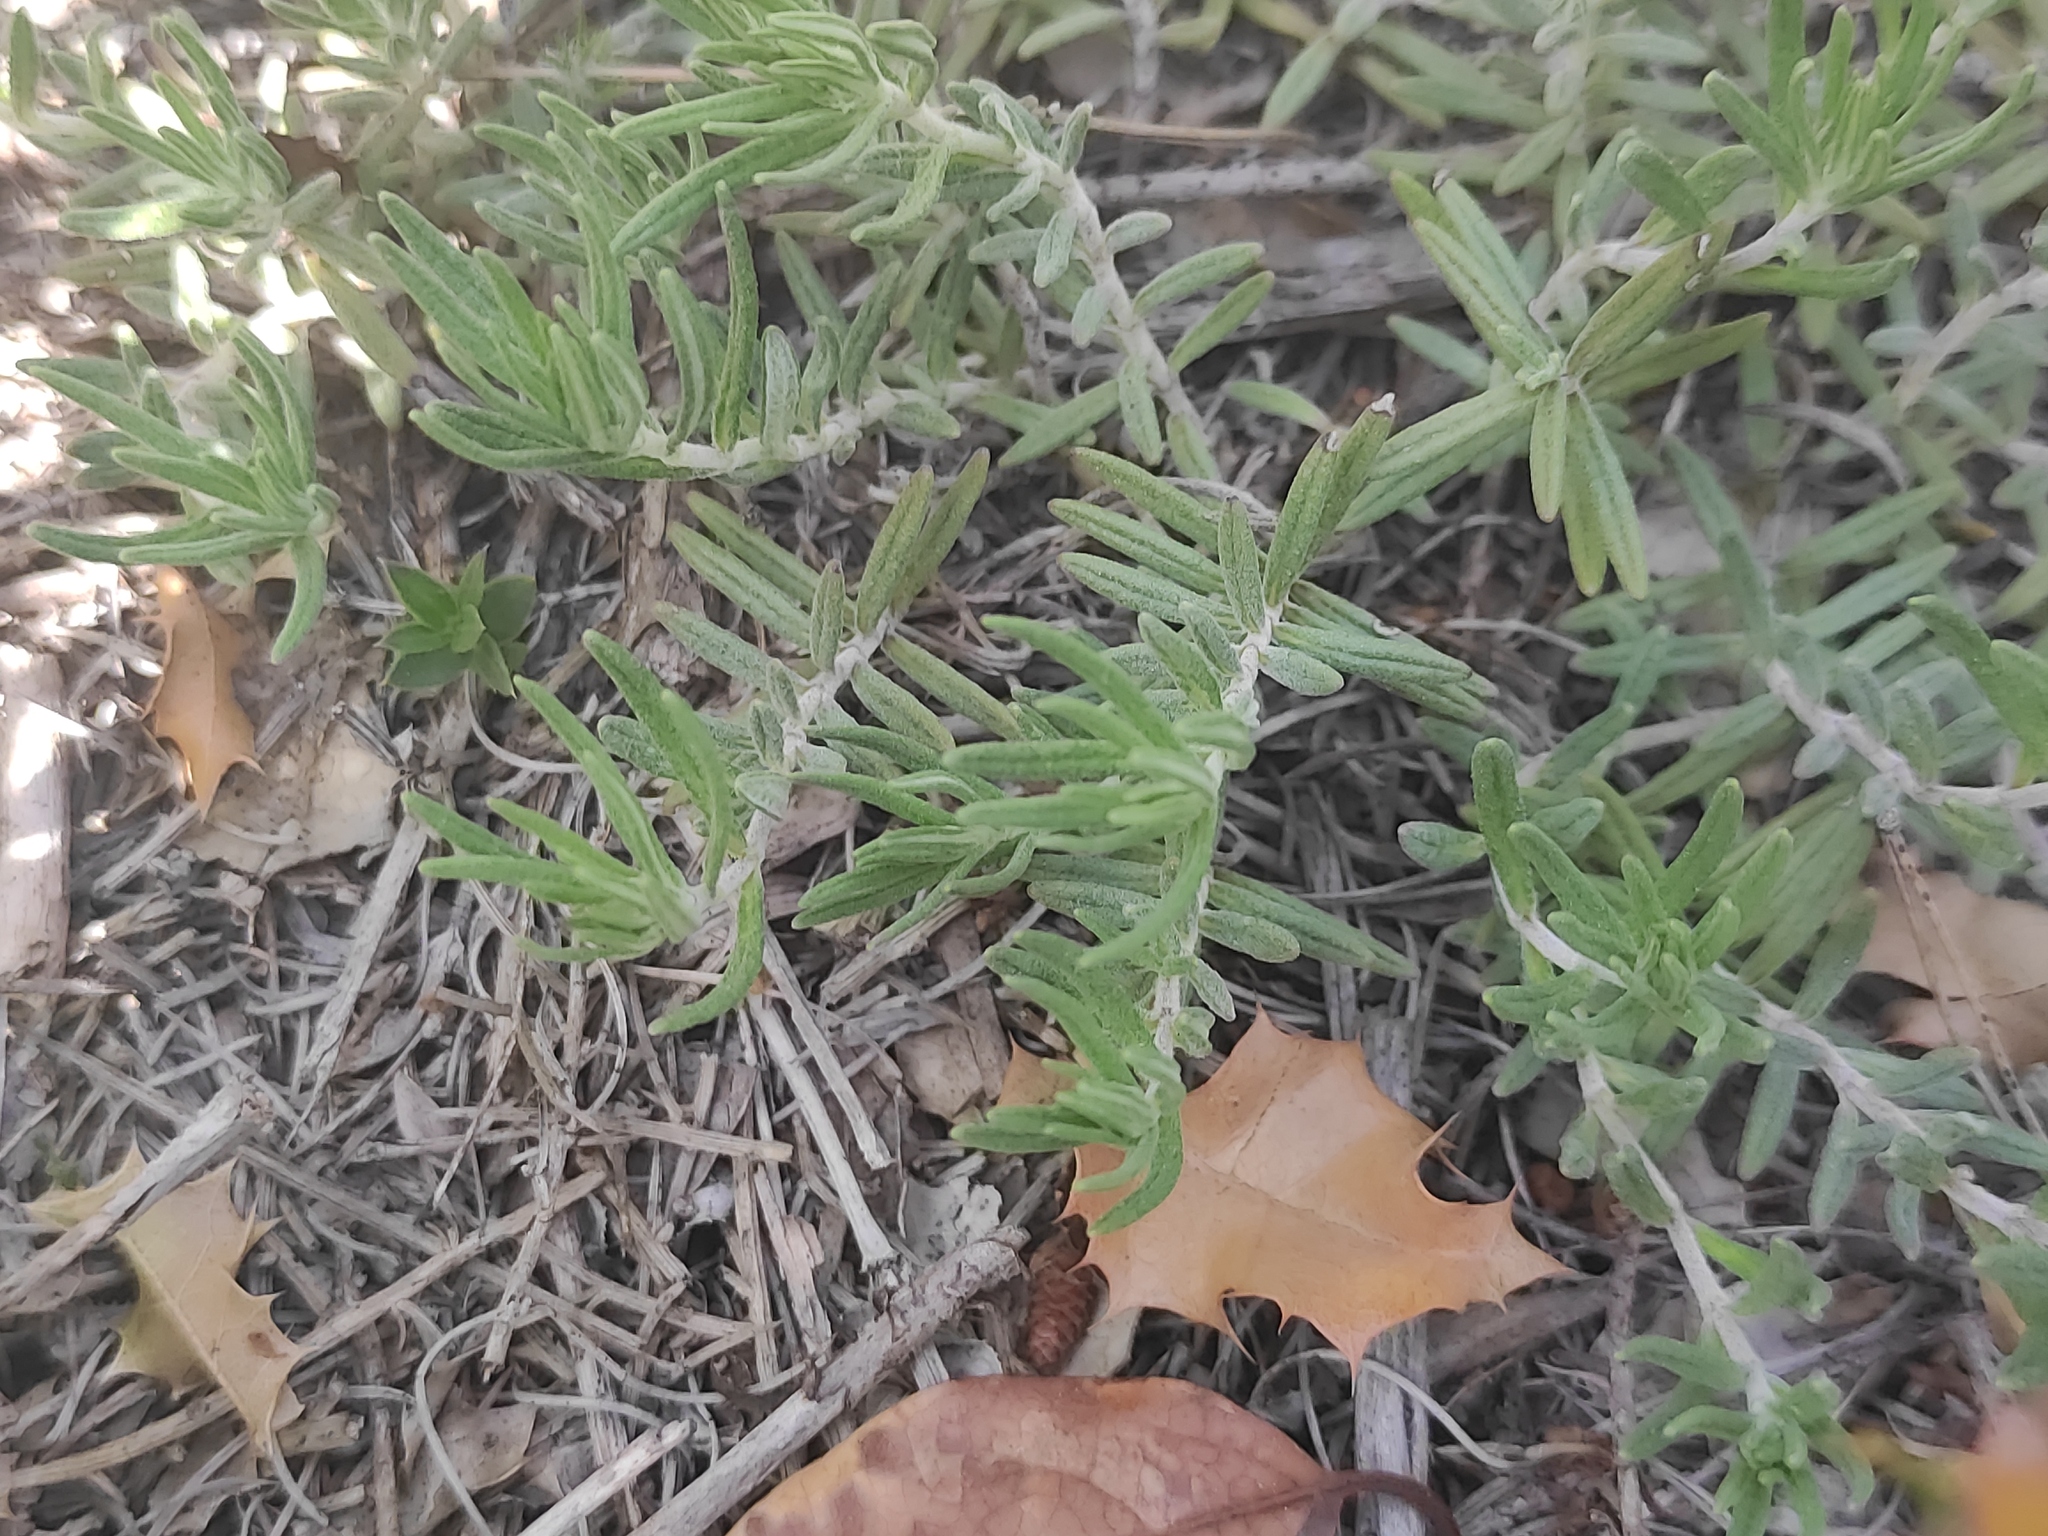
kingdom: Plantae
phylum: Tracheophyta
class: Magnoliopsida
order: Lamiales
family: Lamiaceae
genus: Teucrium
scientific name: Teucrium montanum
